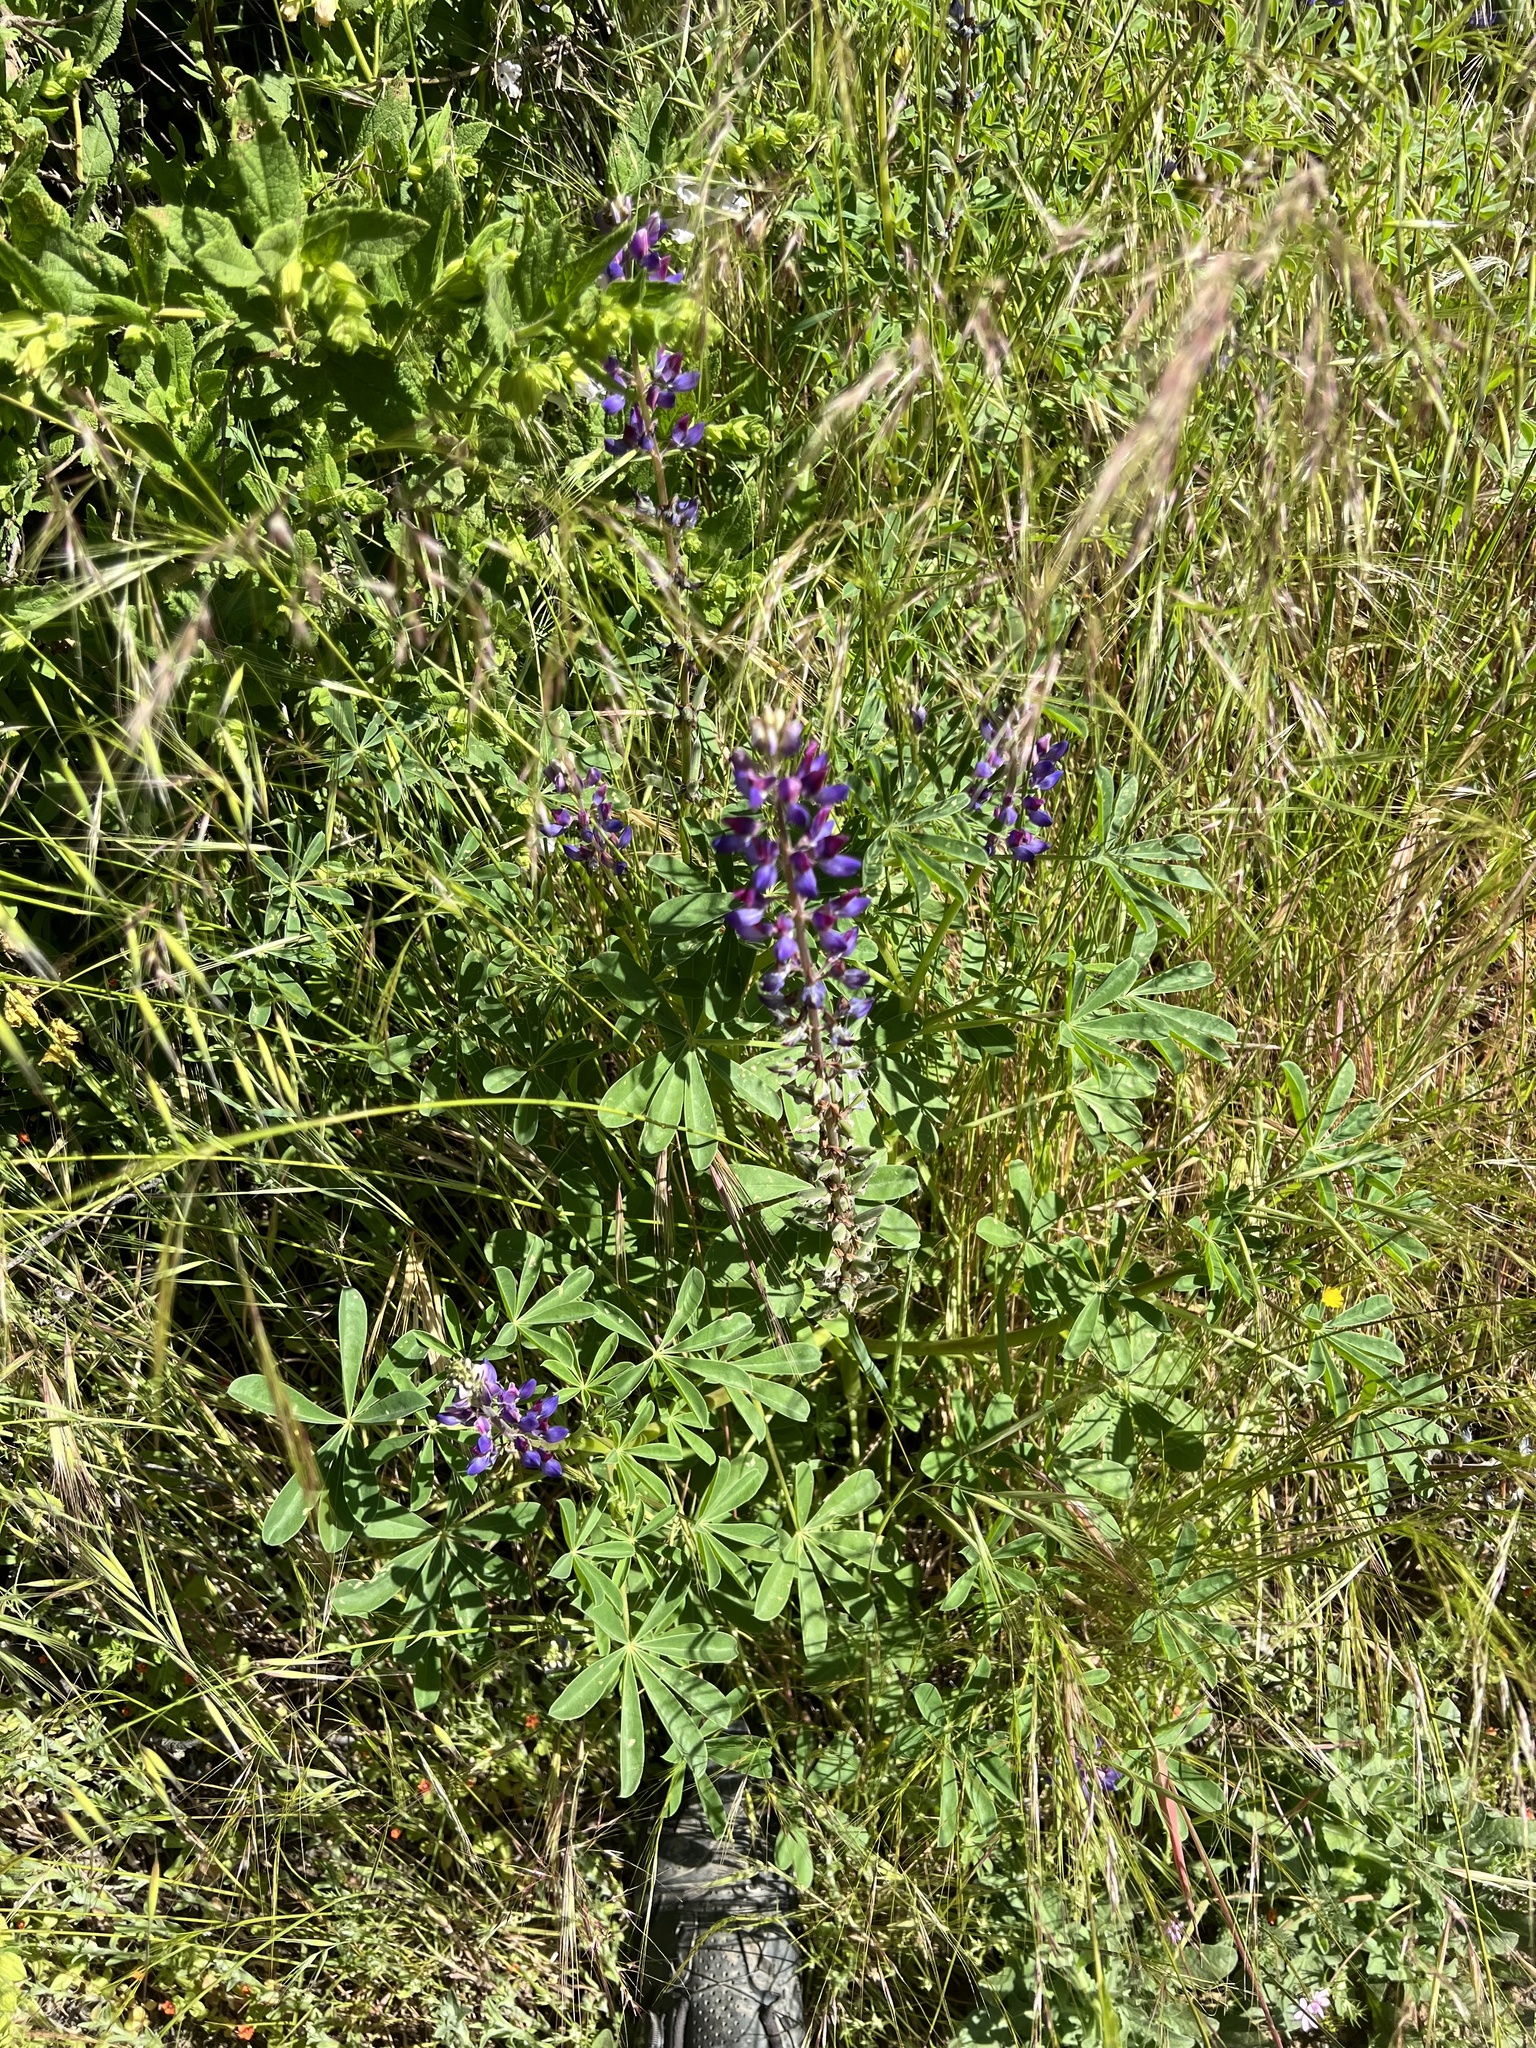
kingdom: Plantae
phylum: Tracheophyta
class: Magnoliopsida
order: Fabales
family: Fabaceae
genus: Lupinus
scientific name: Lupinus succulentus
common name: Arroyo lupine
